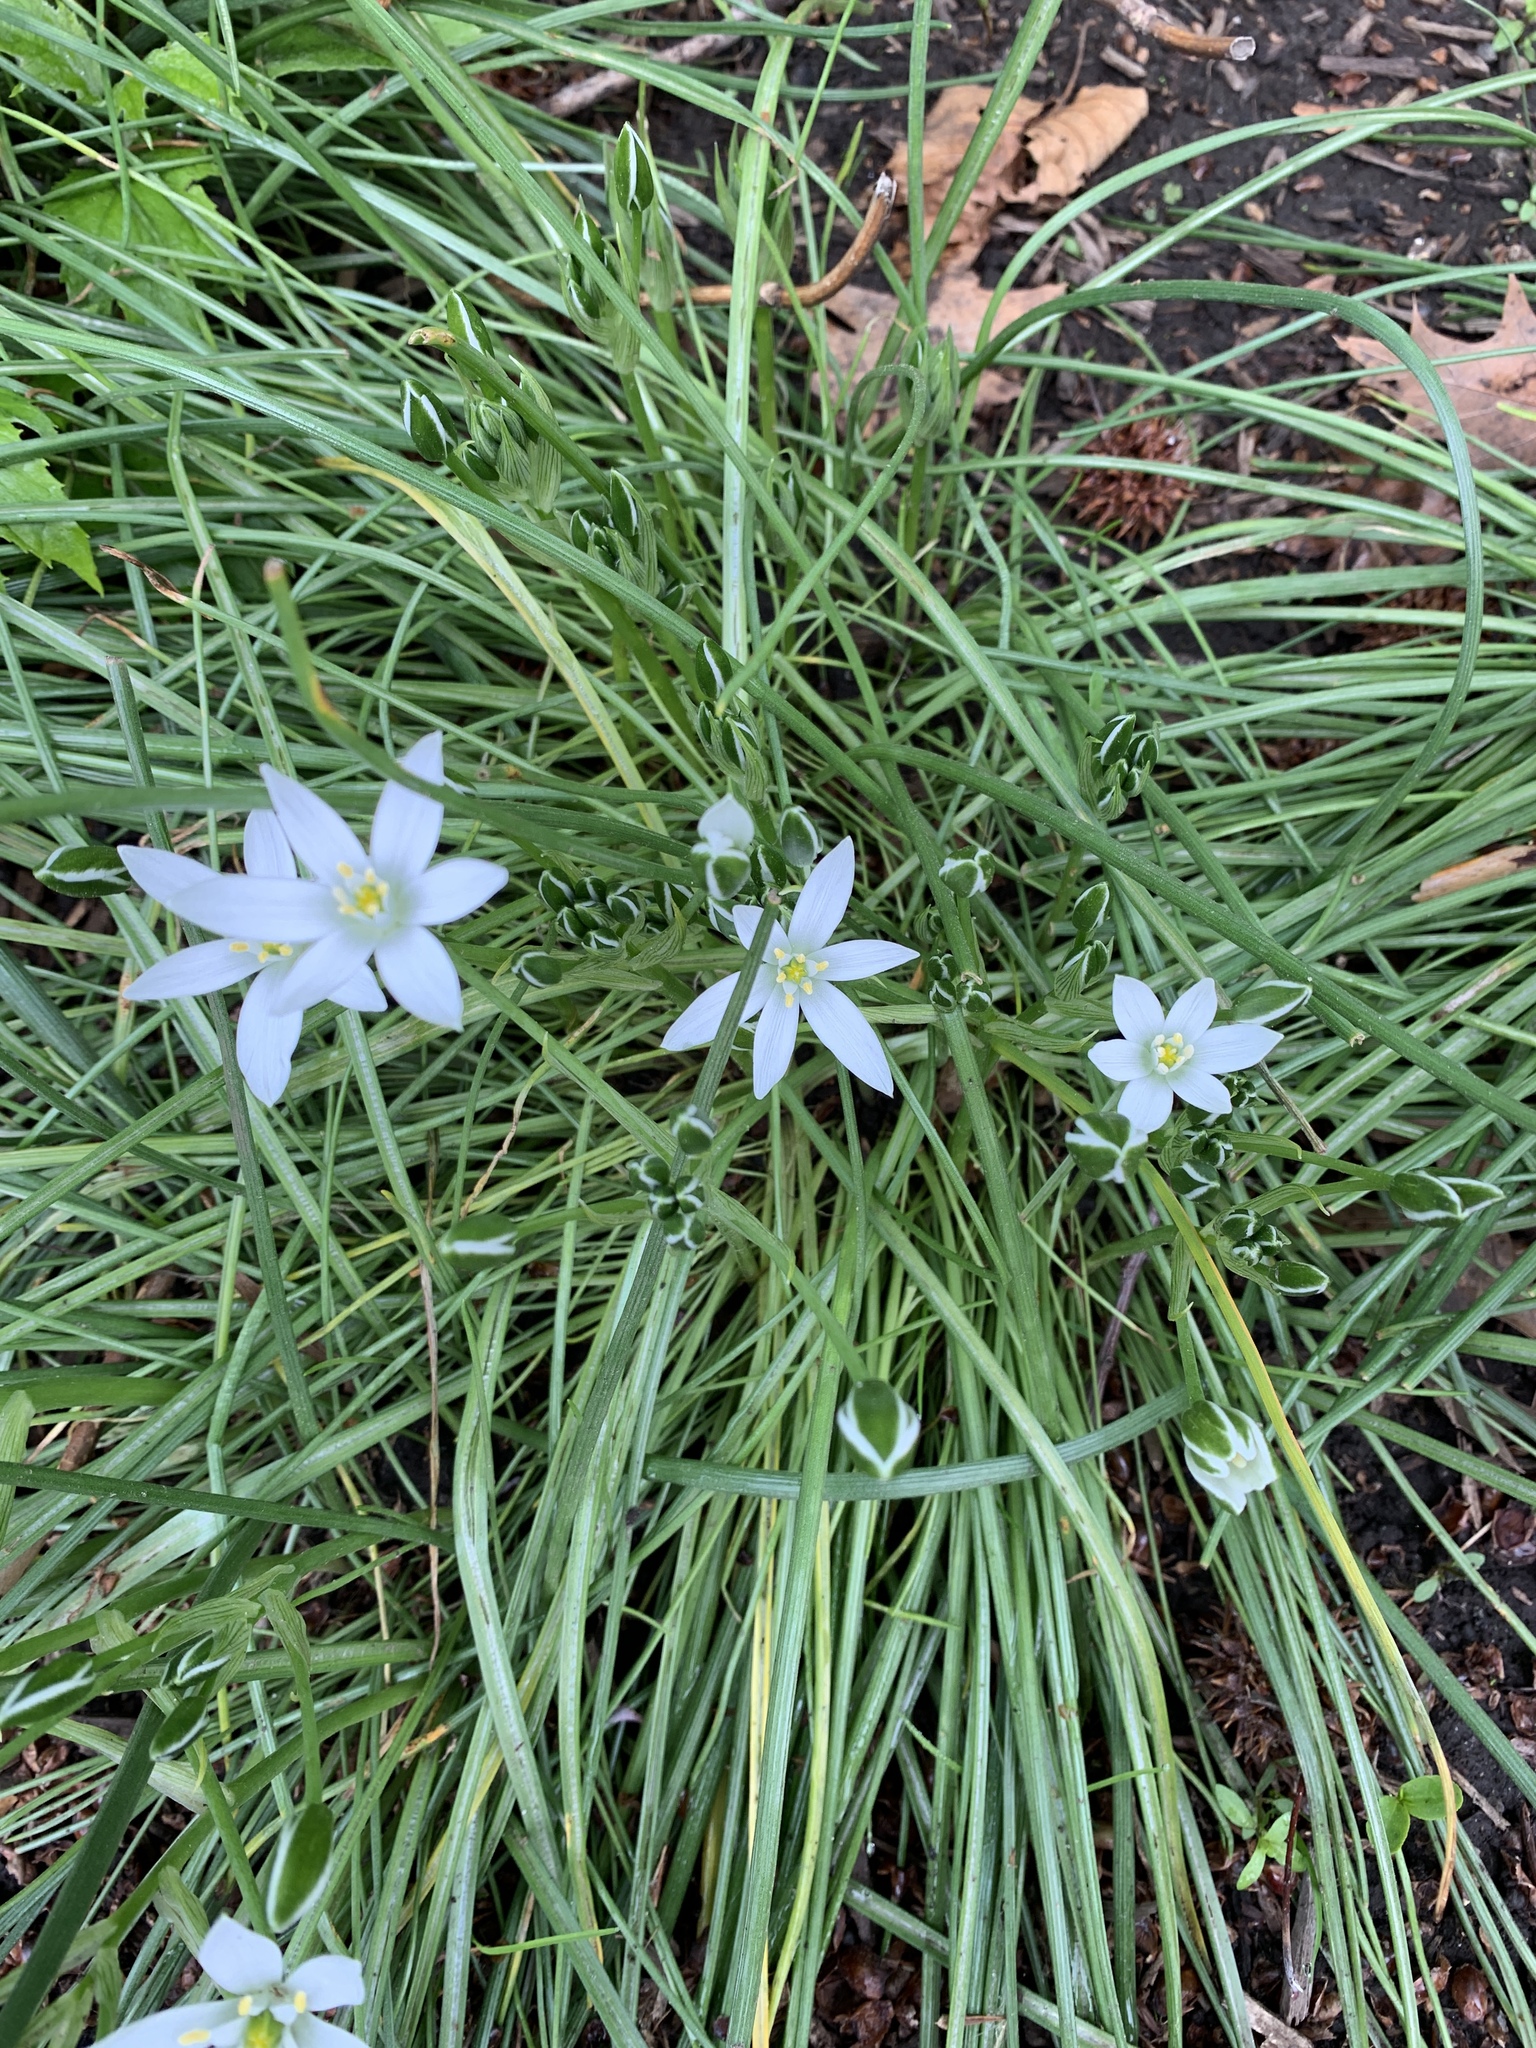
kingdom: Plantae
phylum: Tracheophyta
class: Liliopsida
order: Asparagales
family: Asparagaceae
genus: Ornithogalum
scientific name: Ornithogalum umbellatum
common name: Garden star-of-bethlehem
